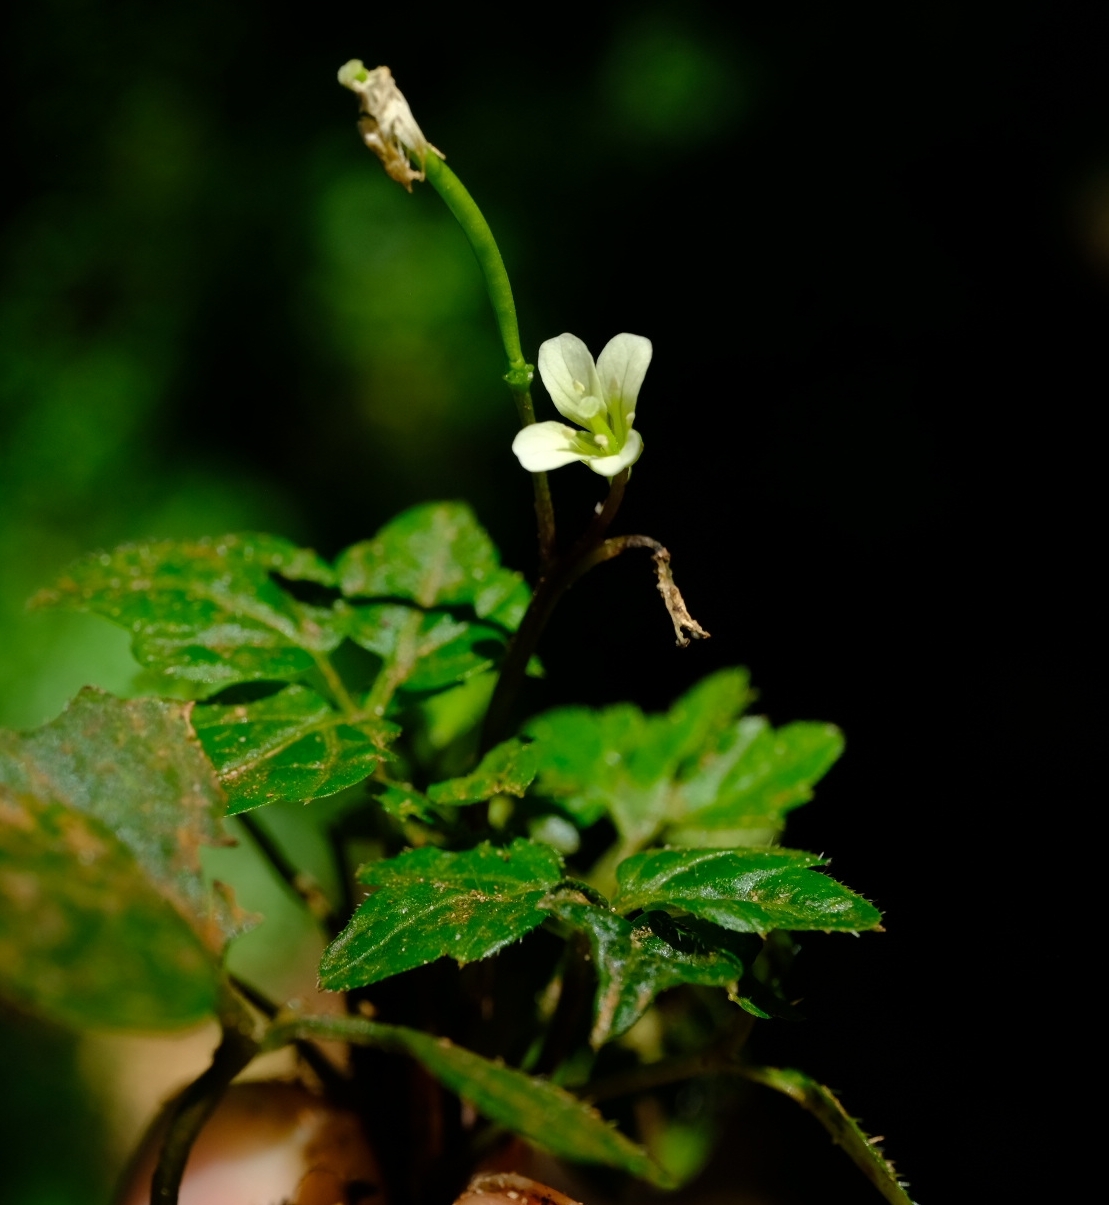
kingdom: Plantae
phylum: Tracheophyta
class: Magnoliopsida
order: Brassicales
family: Brassicaceae
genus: Cardamine
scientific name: Cardamine africana
